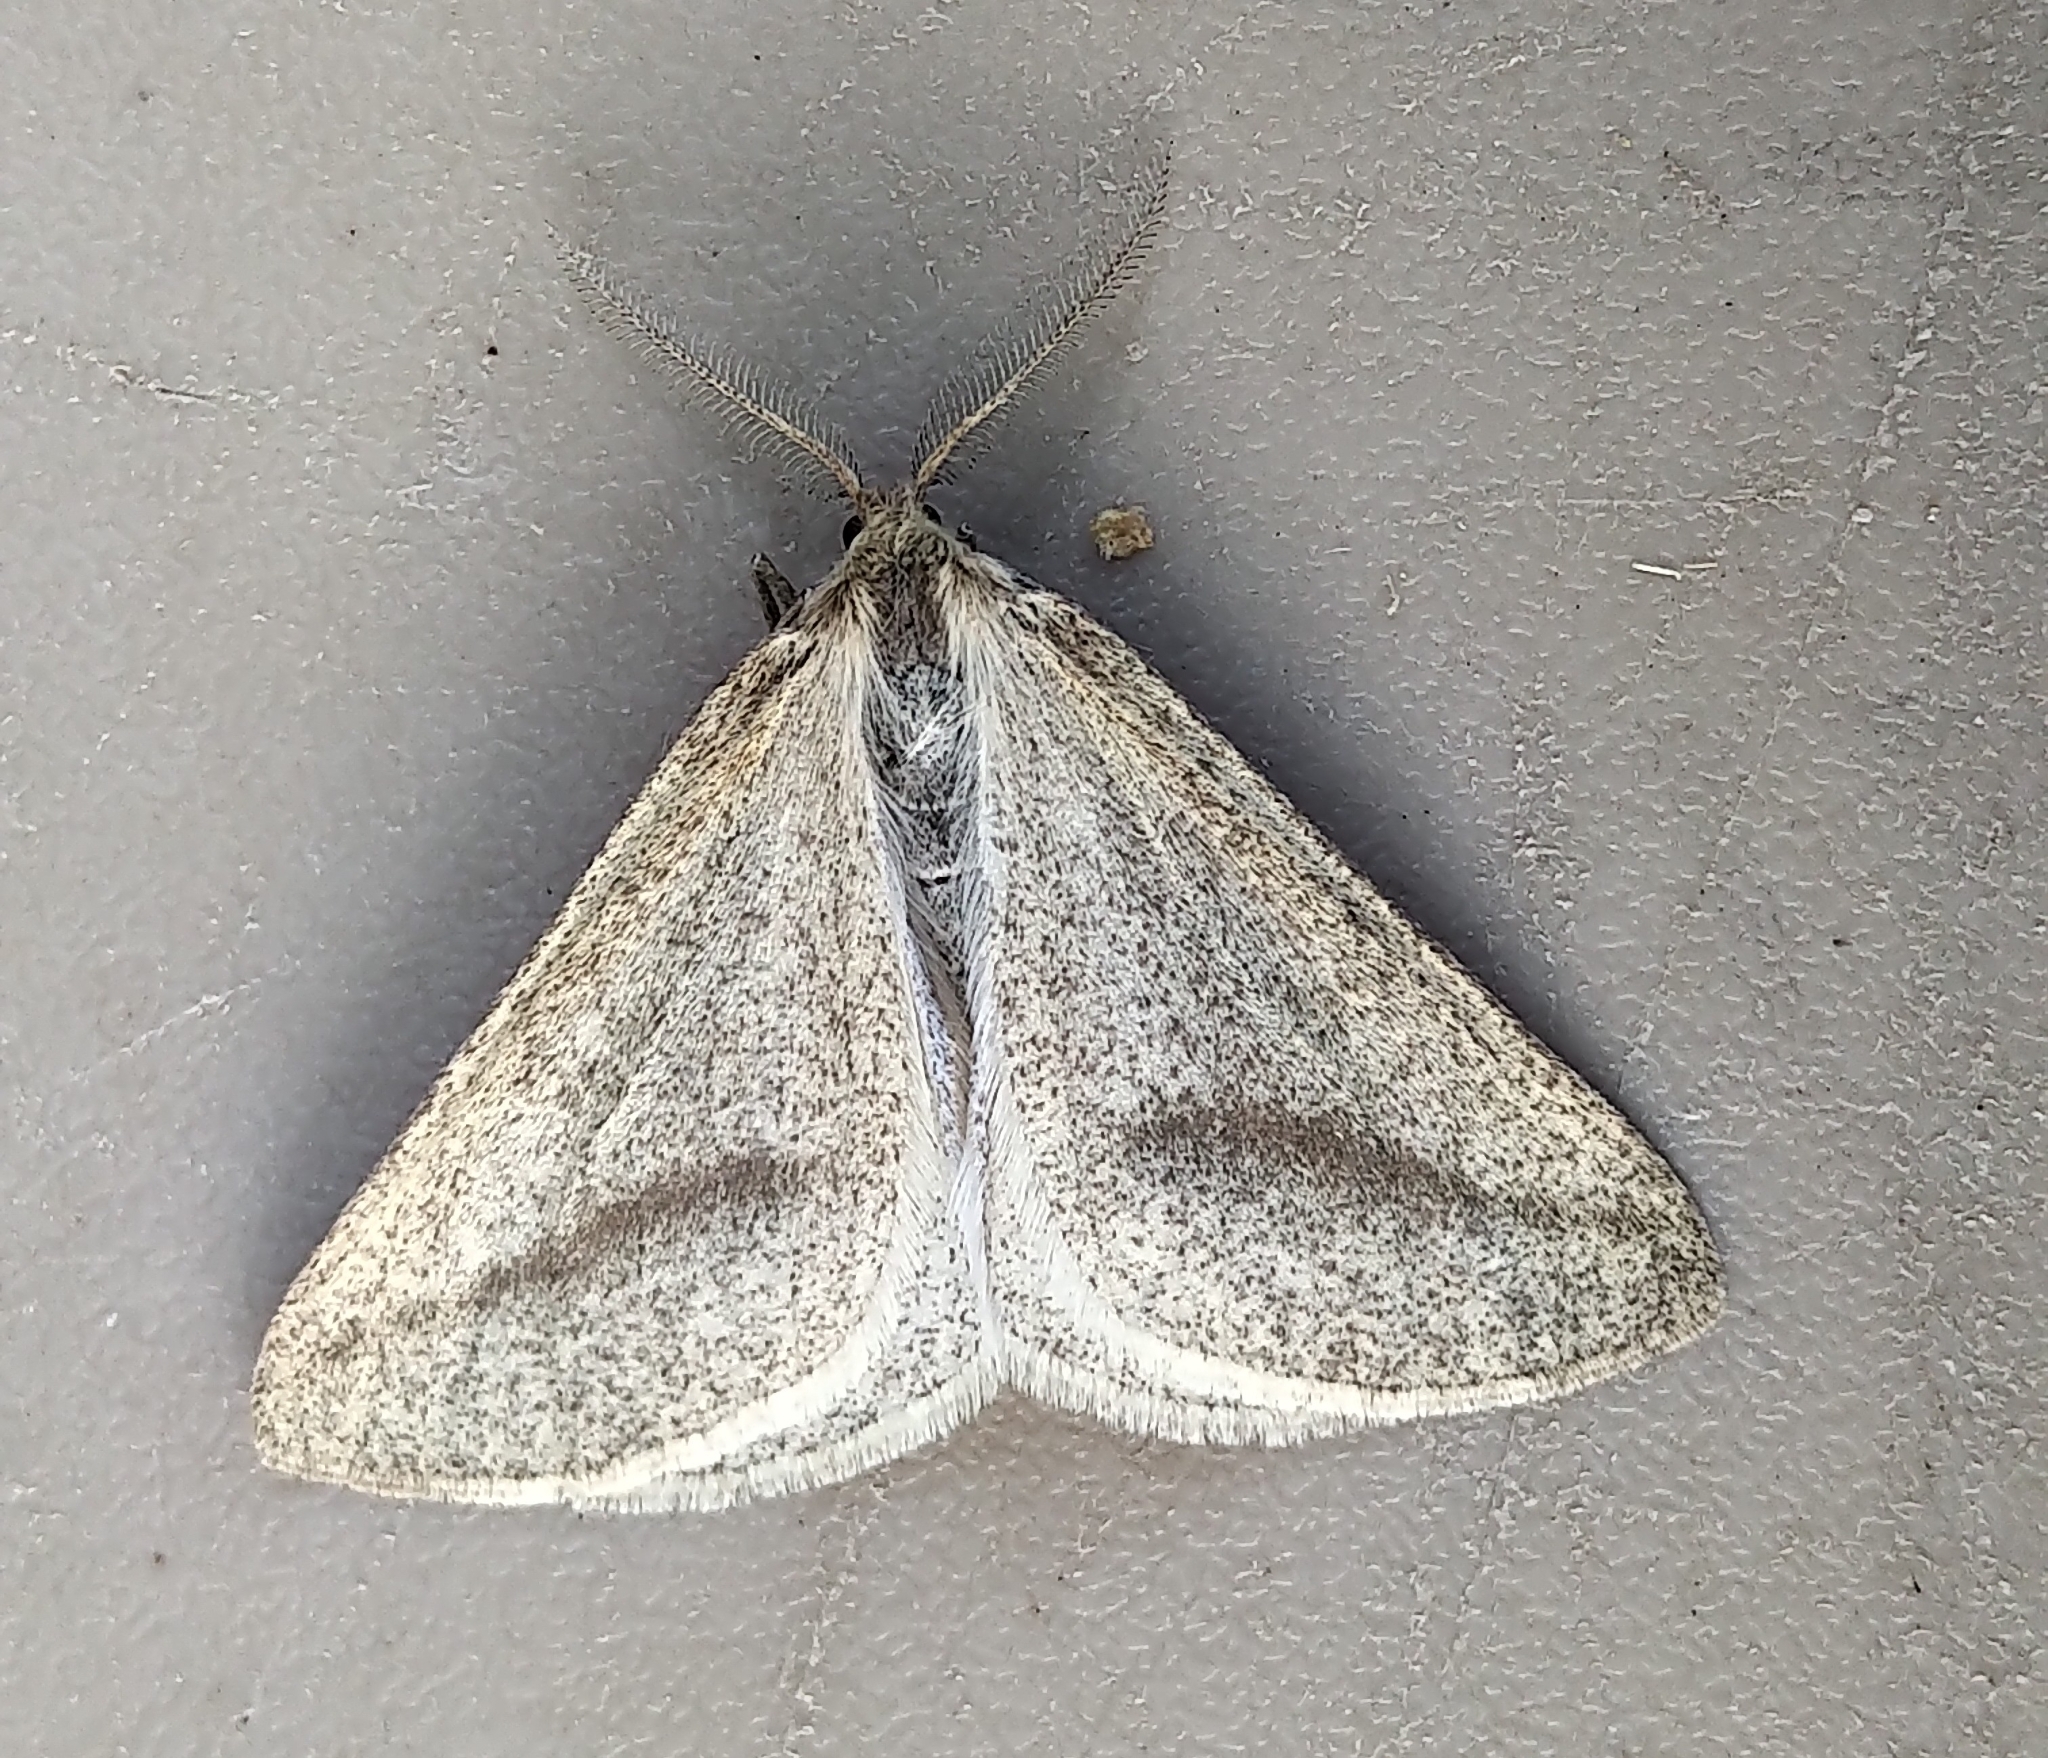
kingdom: Animalia
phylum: Arthropoda
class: Insecta
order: Lepidoptera
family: Geometridae
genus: Aspitates
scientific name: Aspitates aberrata
